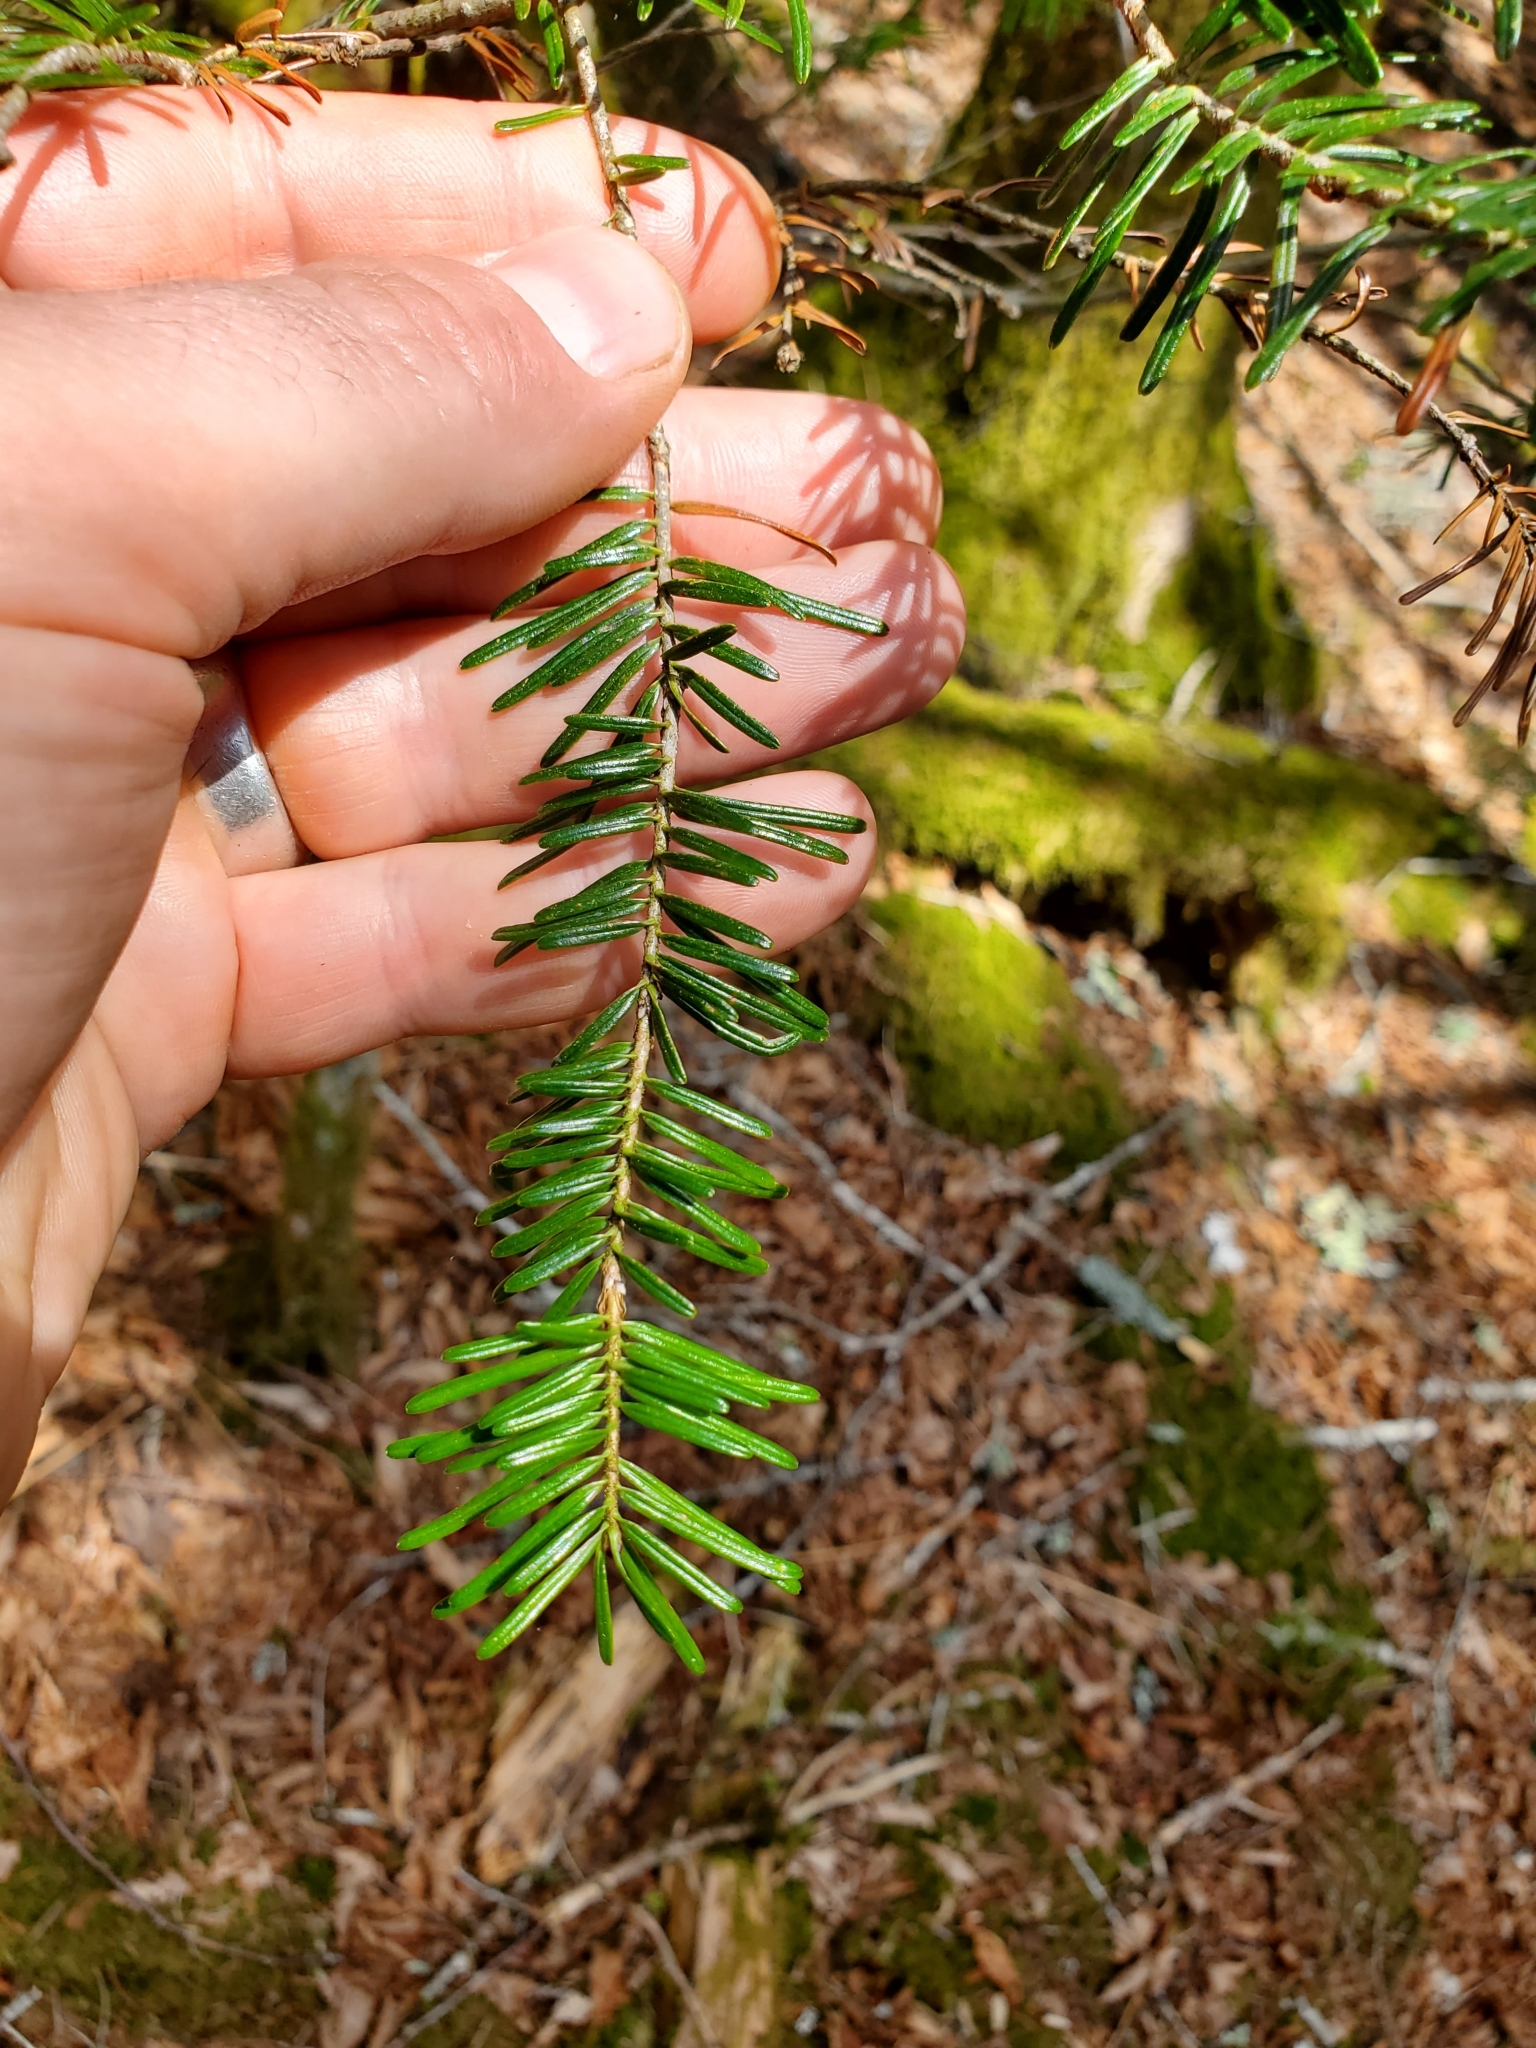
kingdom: Plantae
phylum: Tracheophyta
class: Pinopsida
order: Pinales
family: Pinaceae
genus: Abies
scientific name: Abies fraseri
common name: Fraser fir
